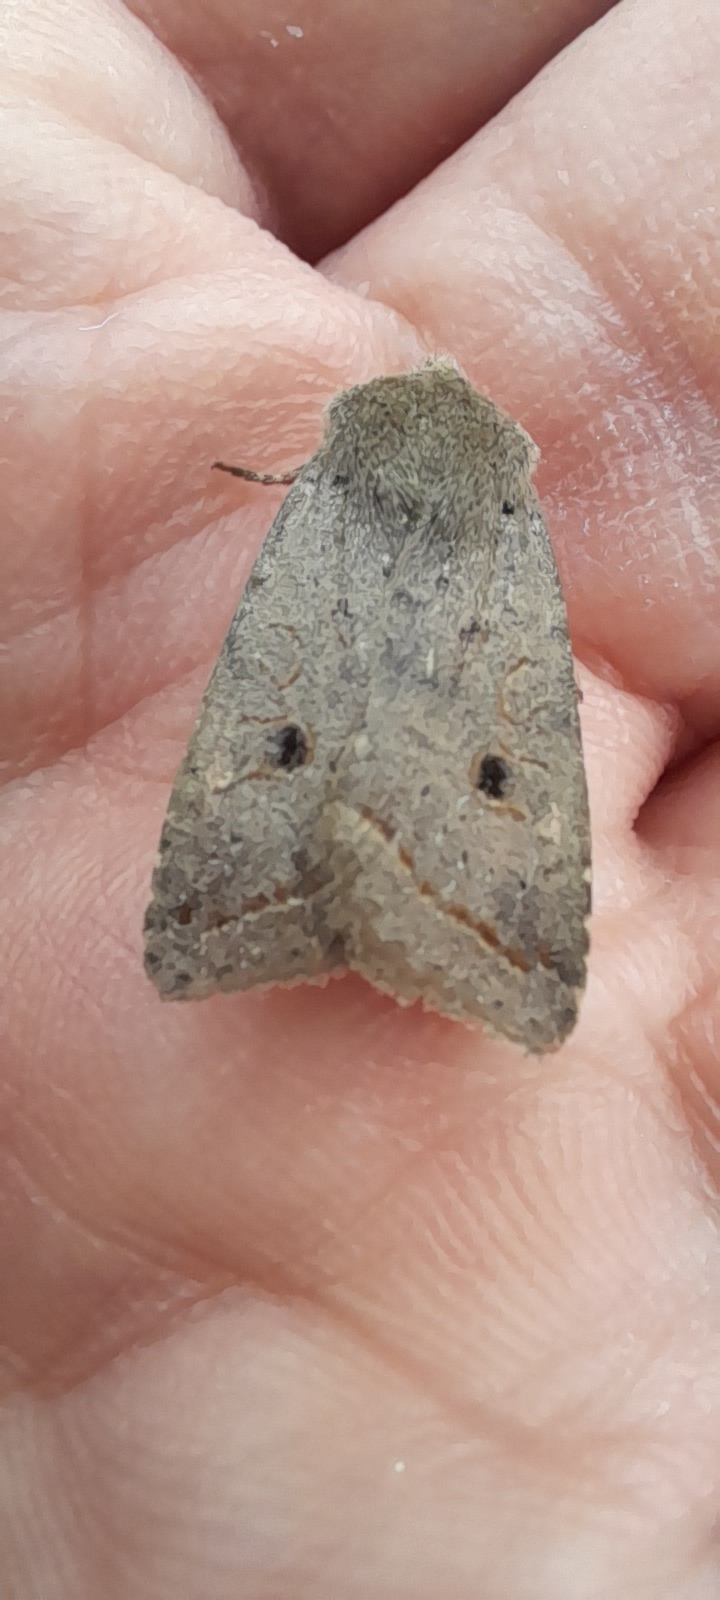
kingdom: Animalia
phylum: Arthropoda
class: Insecta
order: Lepidoptera
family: Noctuidae
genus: Agrochola
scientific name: Agrochola lota
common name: Red-line quaker
